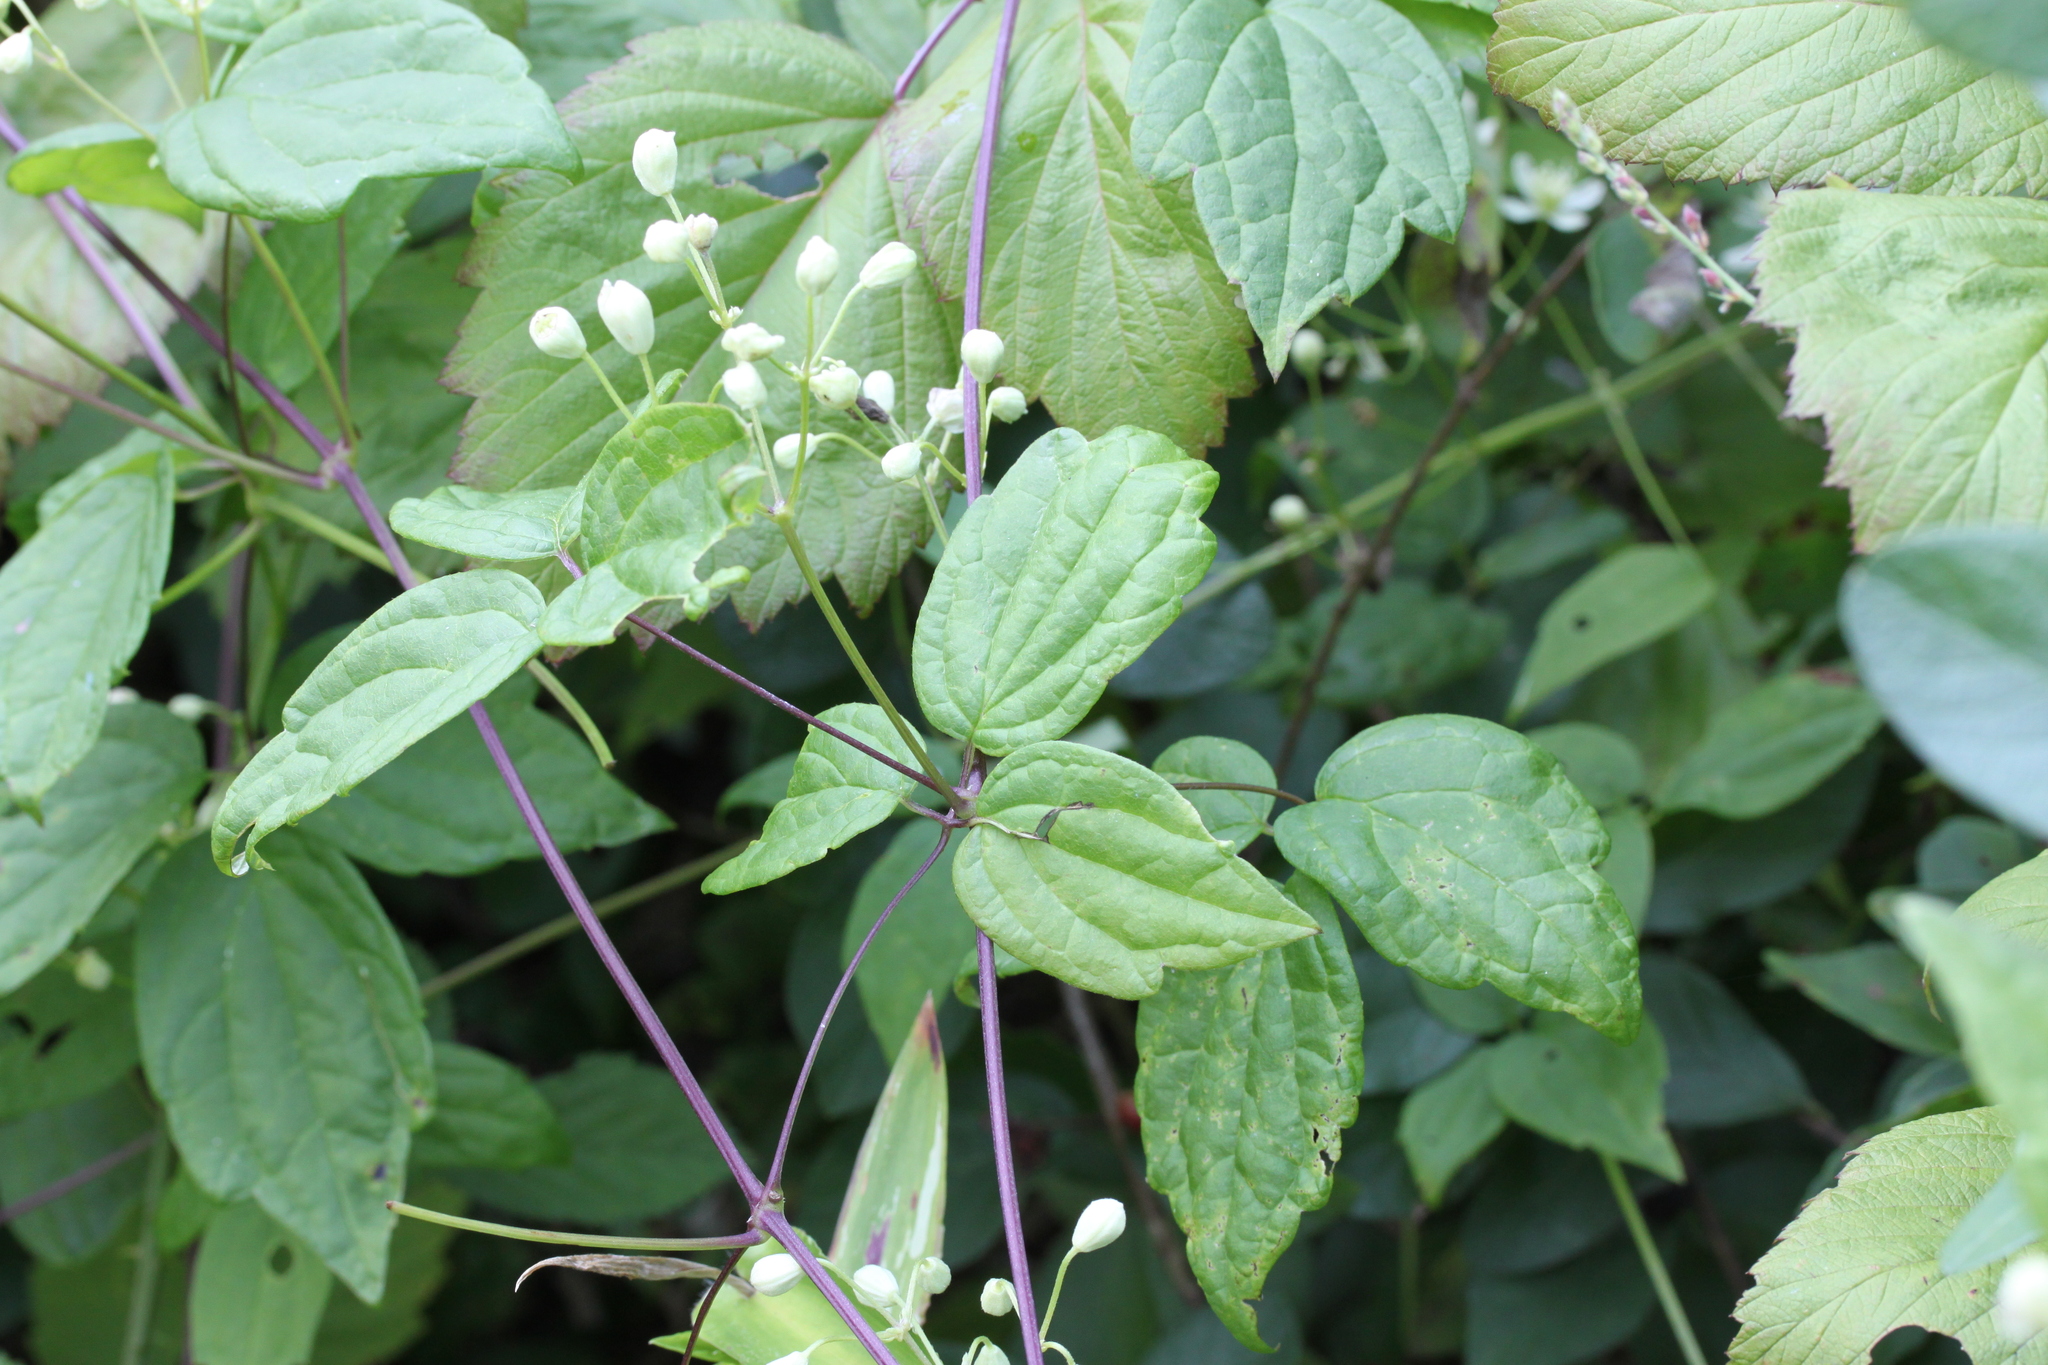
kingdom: Plantae
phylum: Tracheophyta
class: Magnoliopsida
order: Ranunculales
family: Ranunculaceae
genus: Clematis
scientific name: Clematis virginiana
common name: Virgin's-bower
